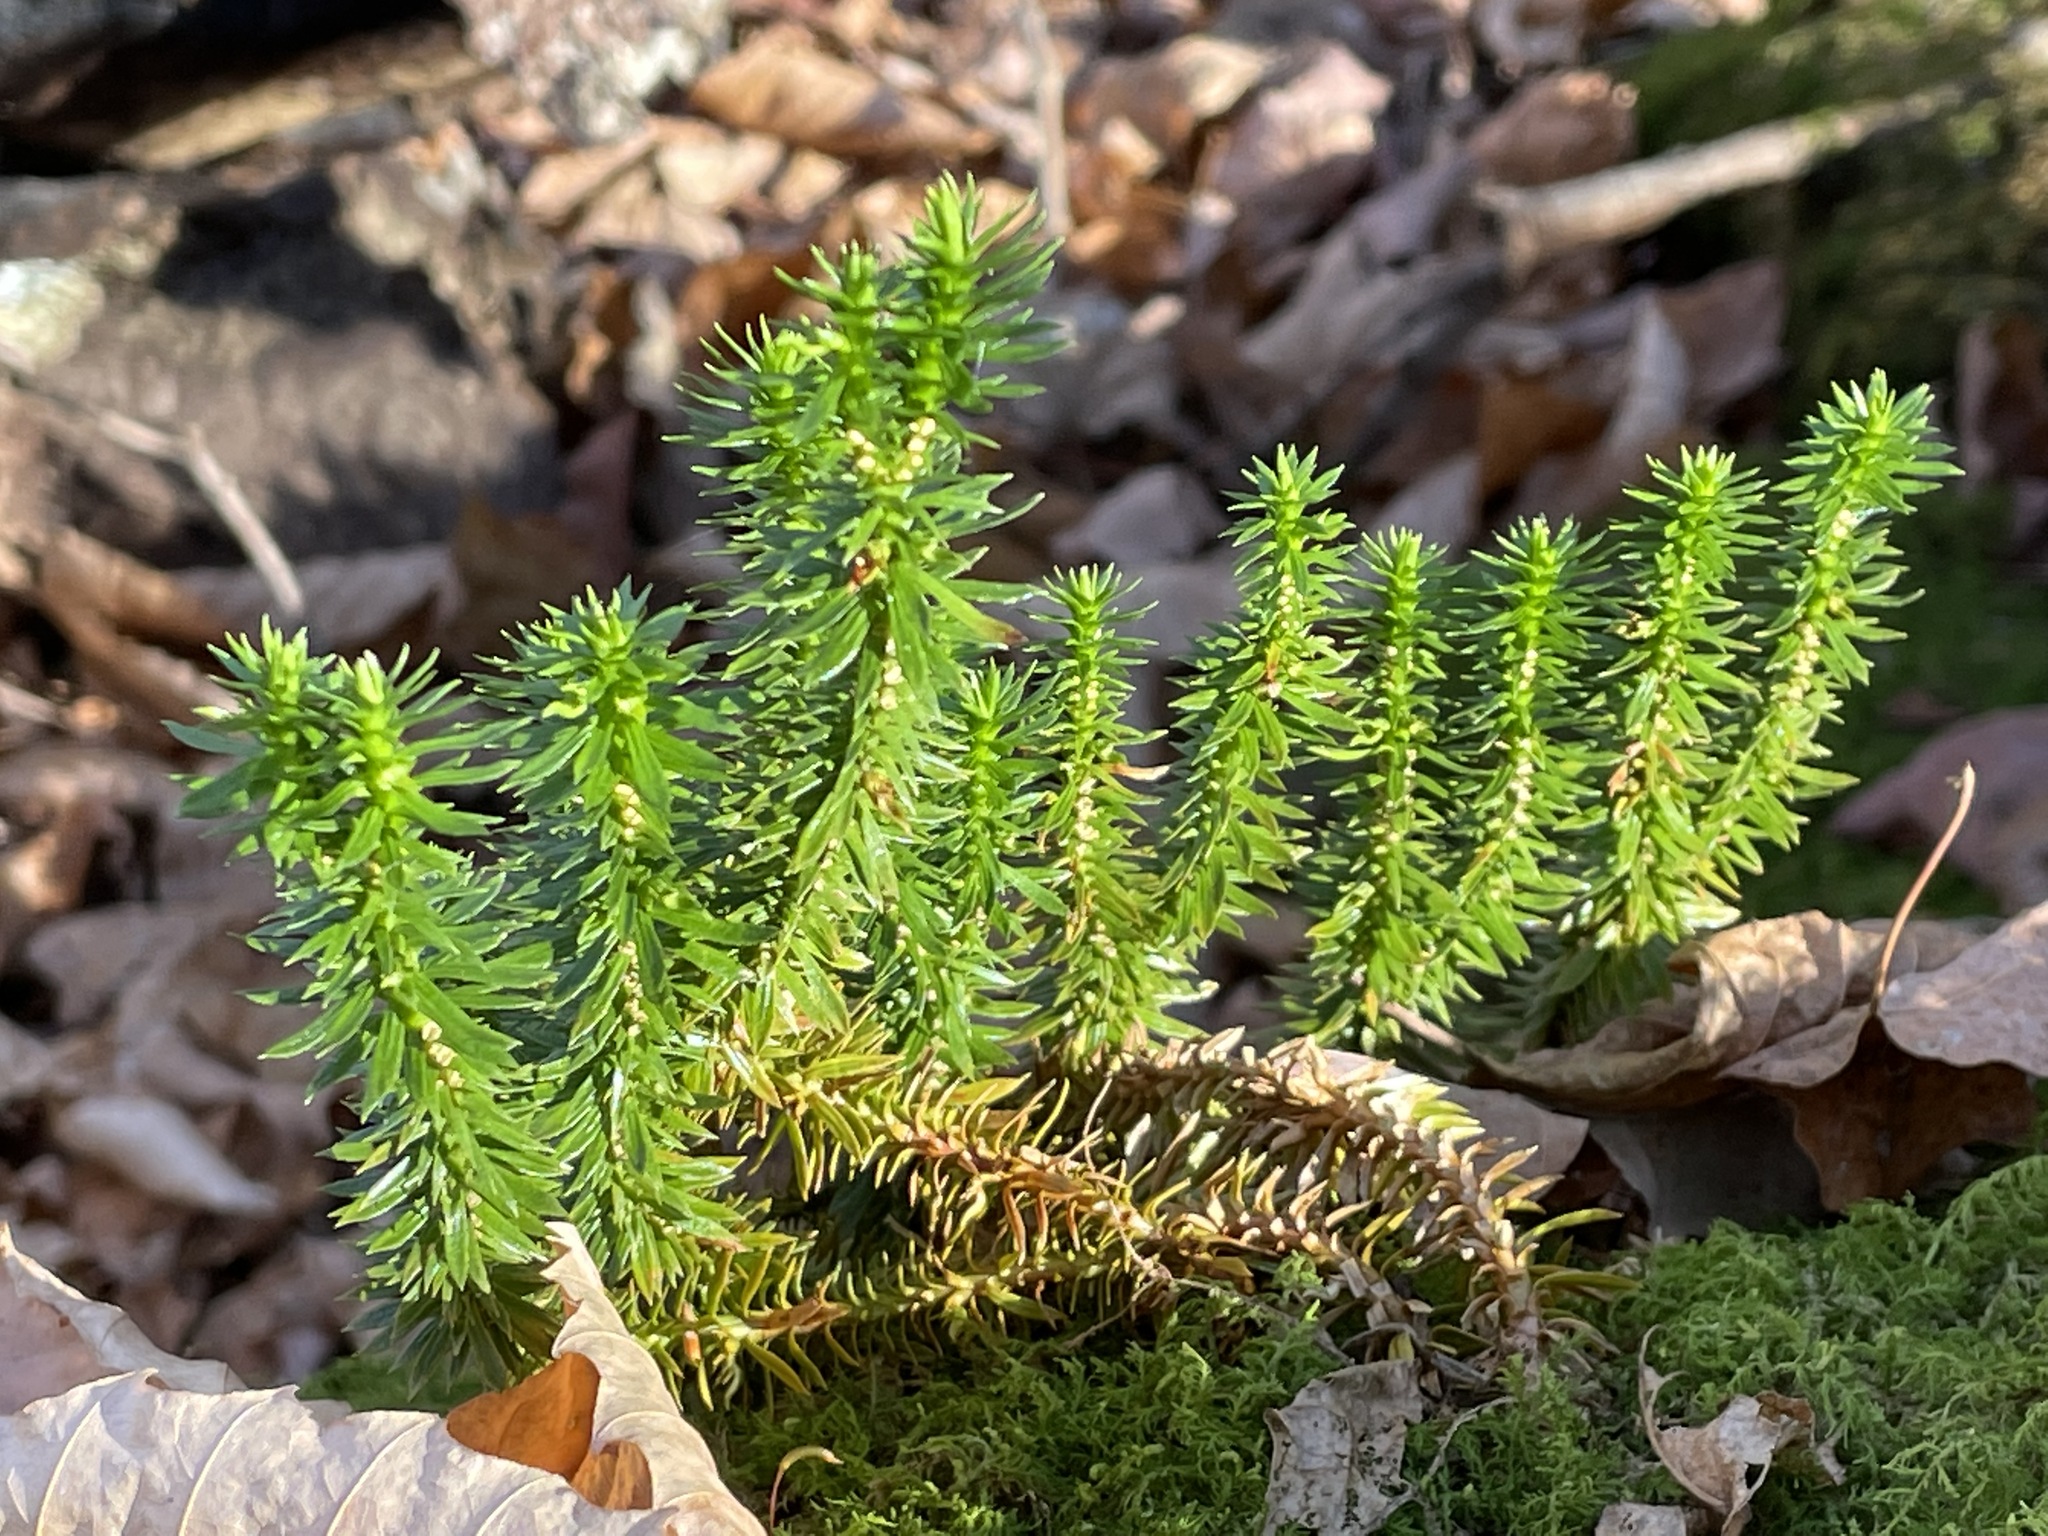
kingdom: Plantae
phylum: Tracheophyta
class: Lycopodiopsida
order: Lycopodiales
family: Lycopodiaceae
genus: Huperzia
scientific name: Huperzia lucidula
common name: Shining clubmoss
